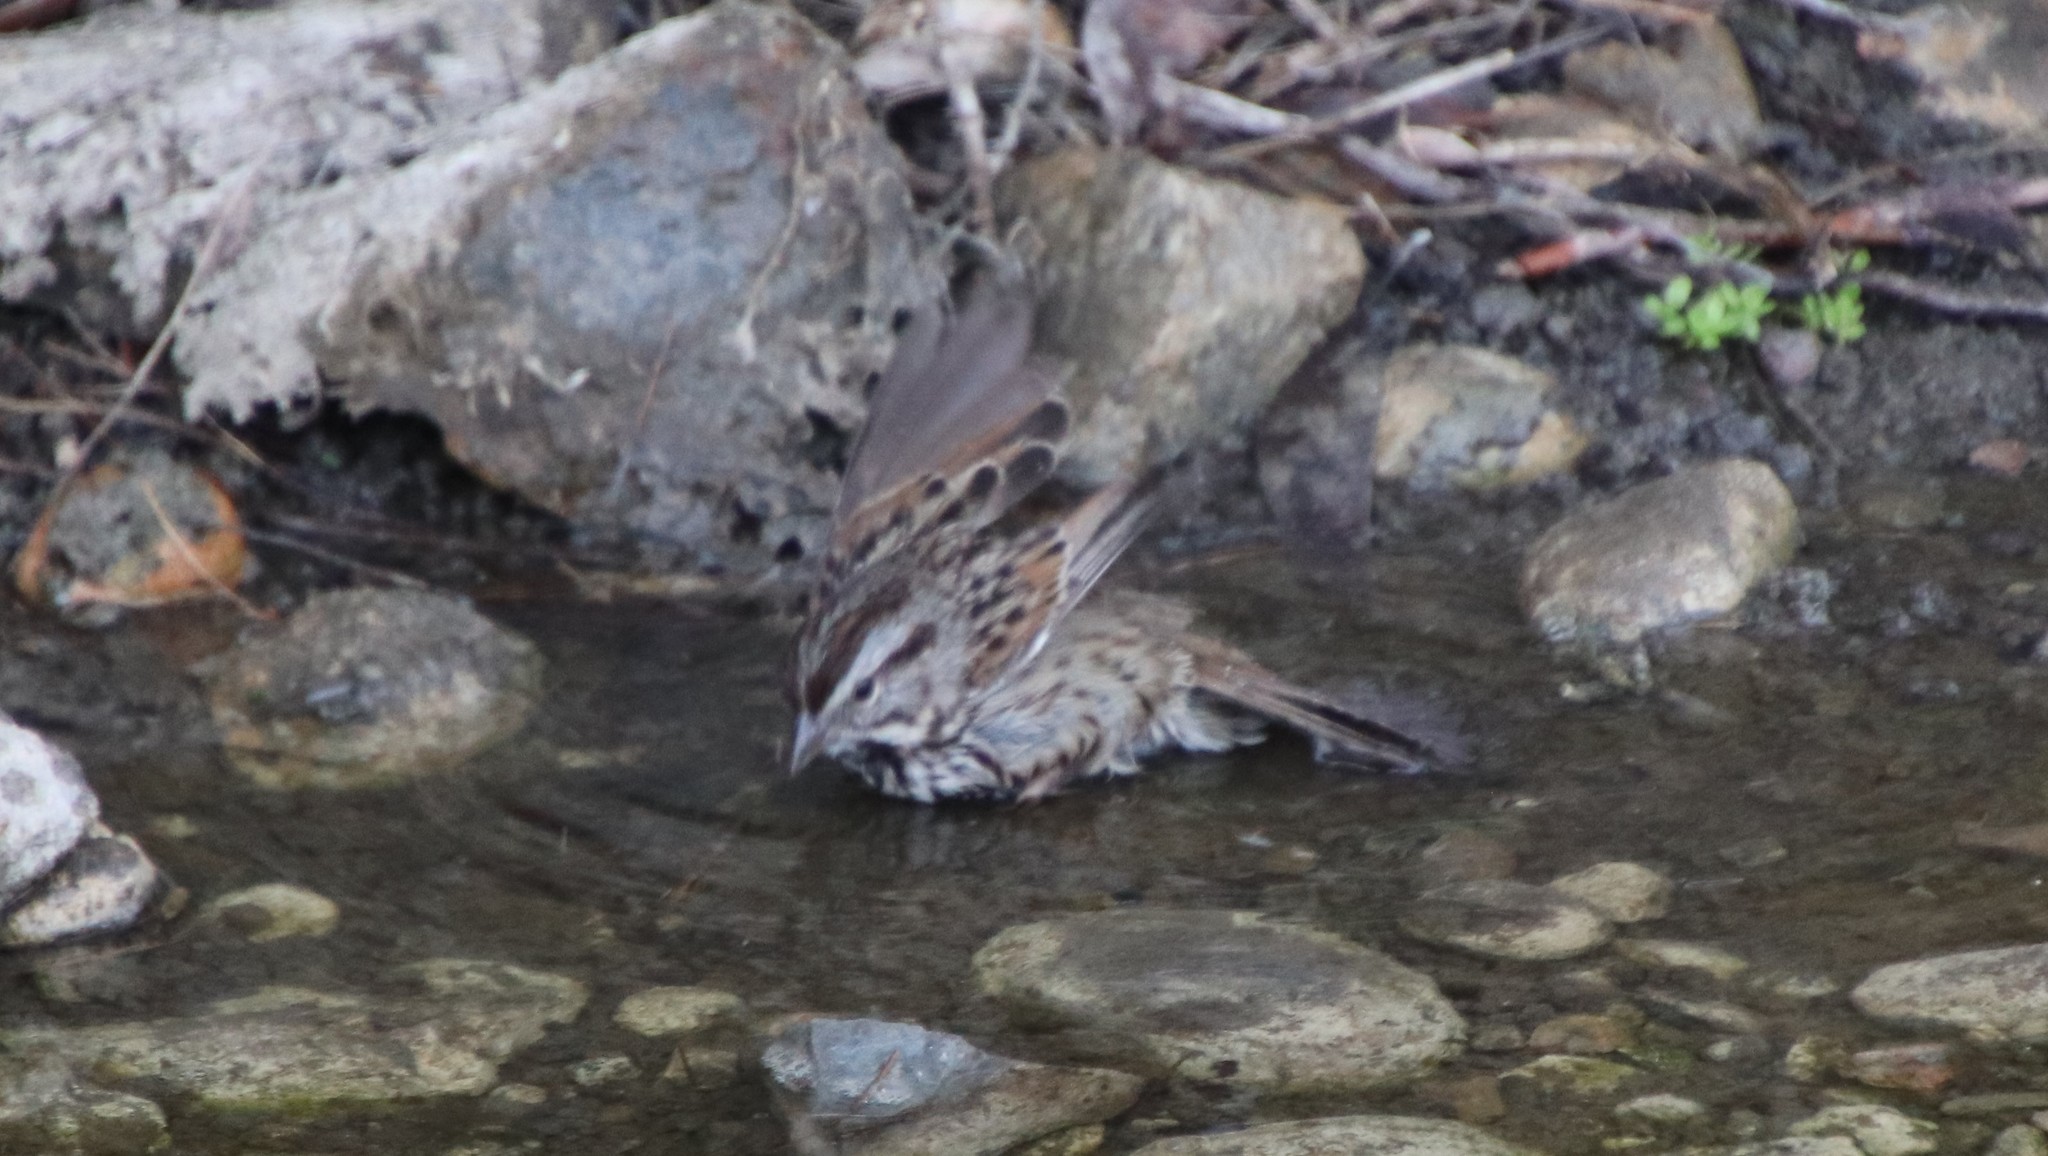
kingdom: Animalia
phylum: Chordata
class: Aves
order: Passeriformes
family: Passerellidae
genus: Melospiza
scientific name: Melospiza melodia
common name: Song sparrow
